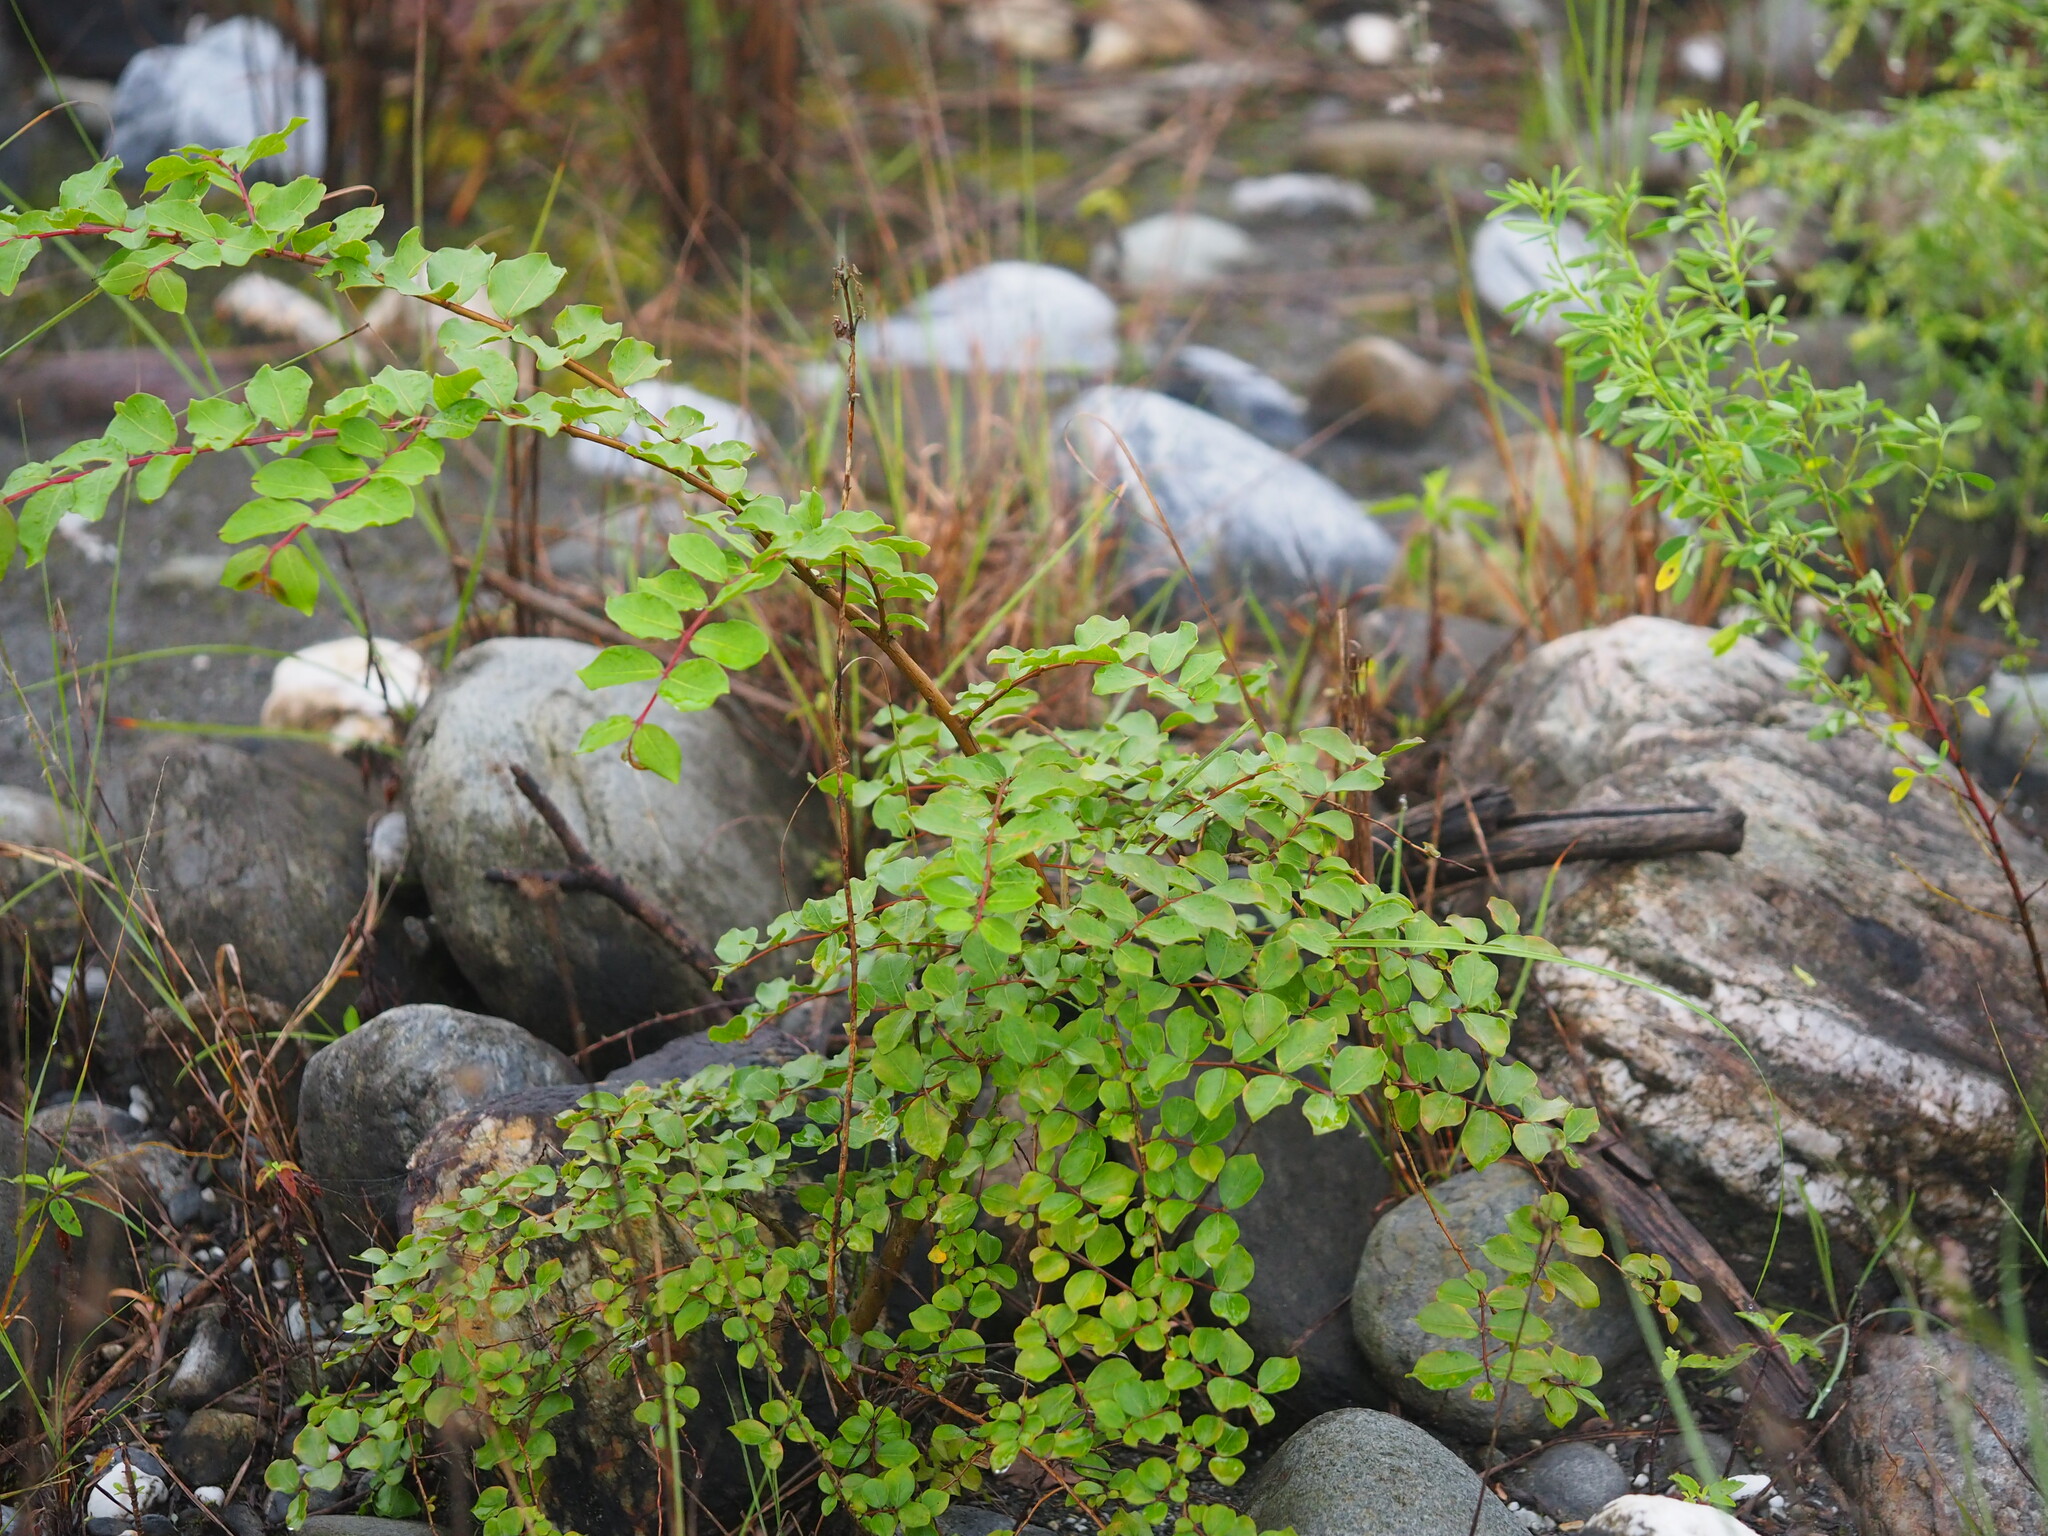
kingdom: Plantae
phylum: Tracheophyta
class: Magnoliopsida
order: Myrtales
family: Lythraceae
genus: Lagerstroemia
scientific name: Lagerstroemia subcostata
